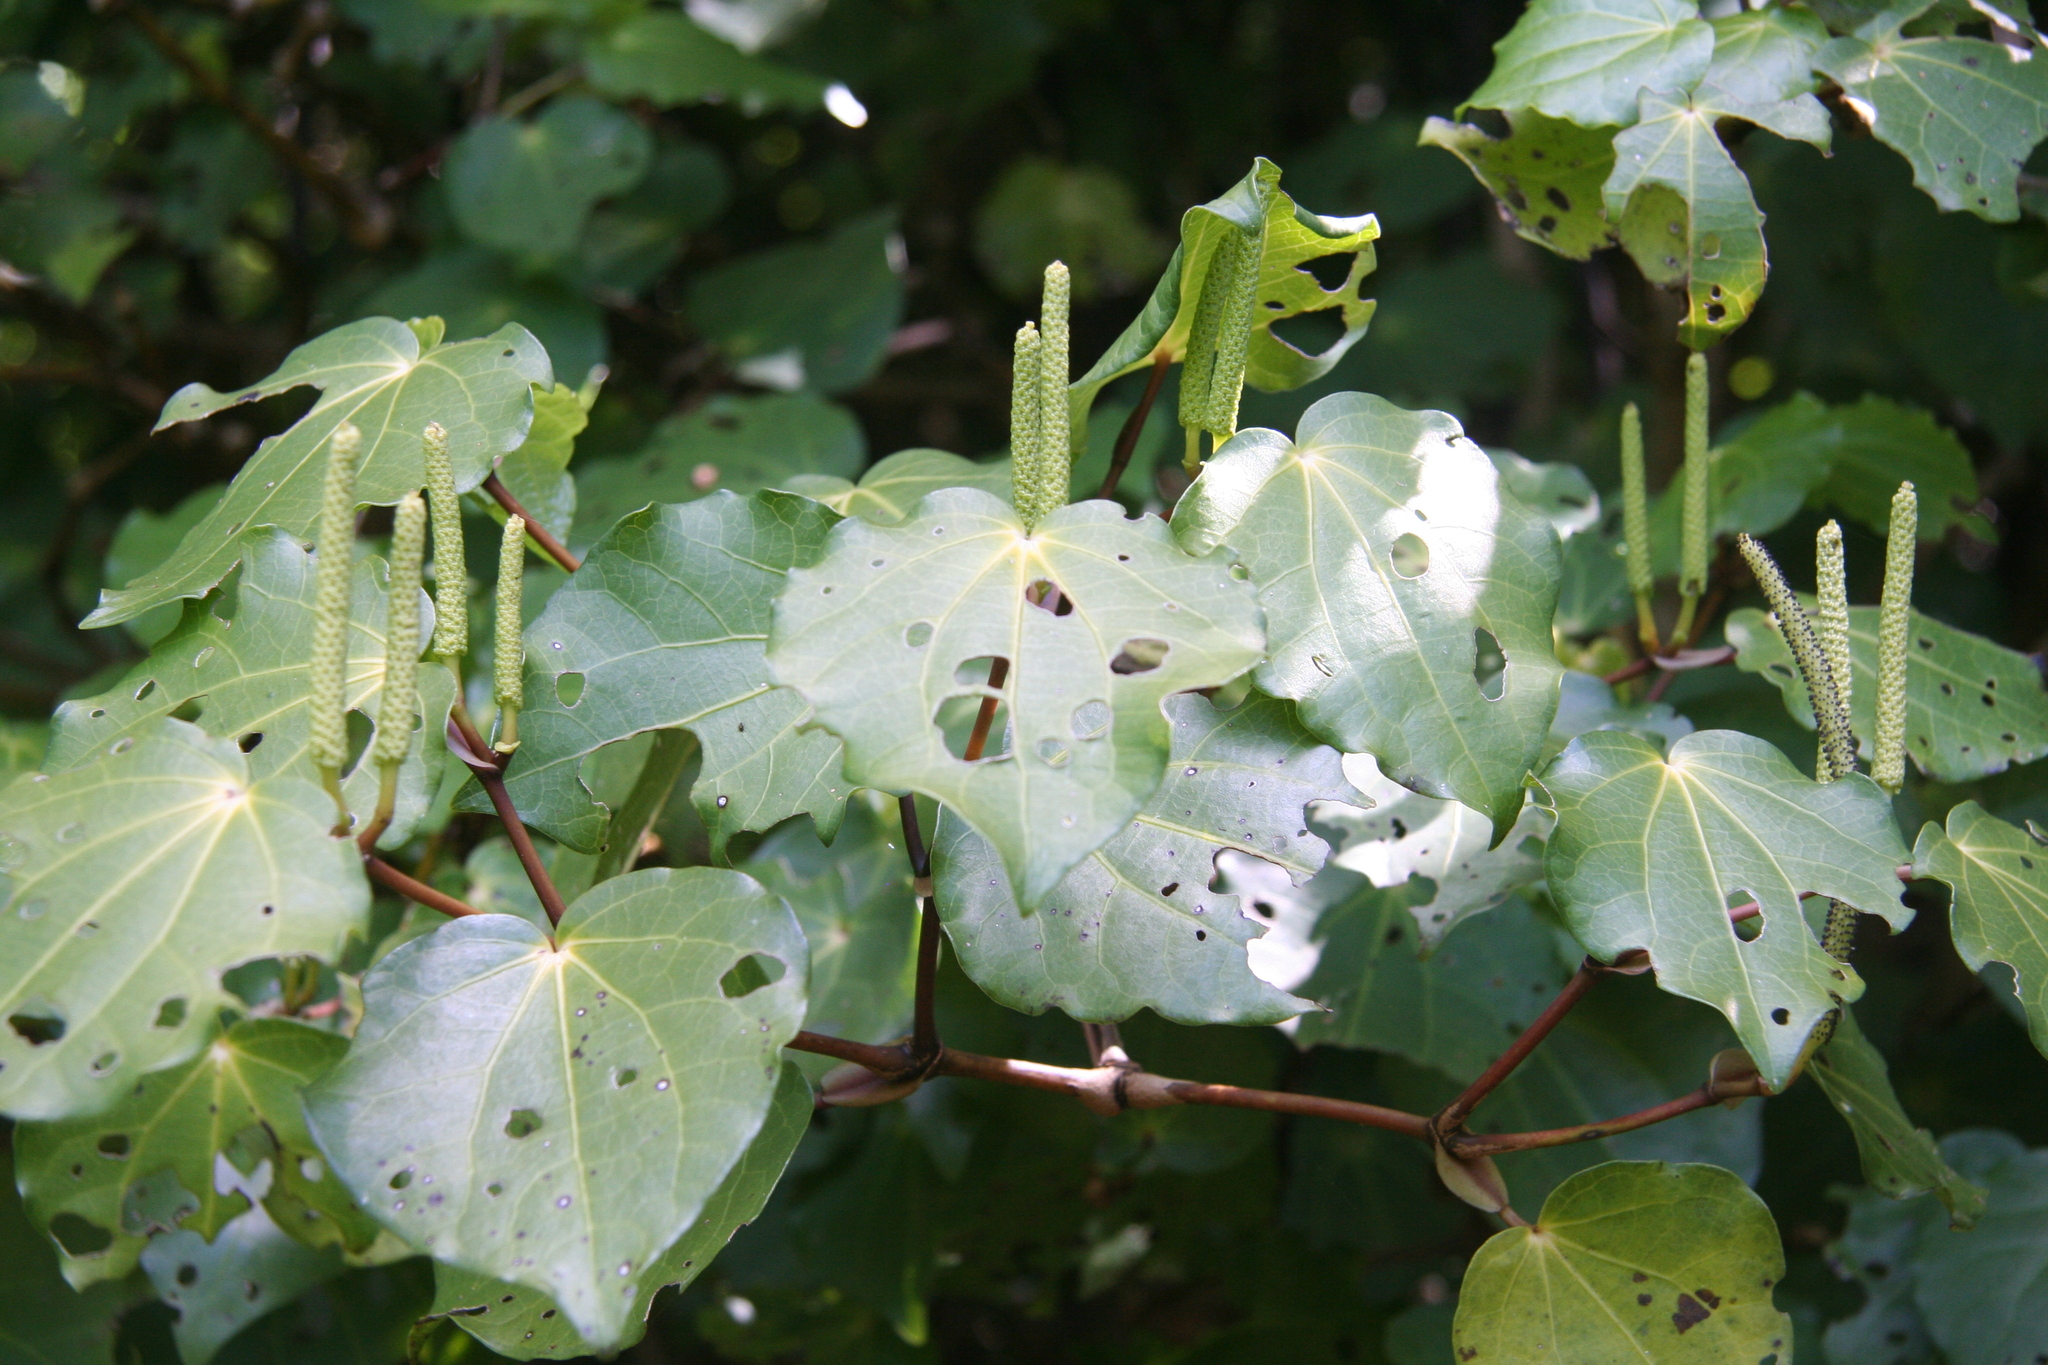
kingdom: Plantae
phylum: Tracheophyta
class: Magnoliopsida
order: Piperales
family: Piperaceae
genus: Macropiper
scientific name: Macropiper excelsum
